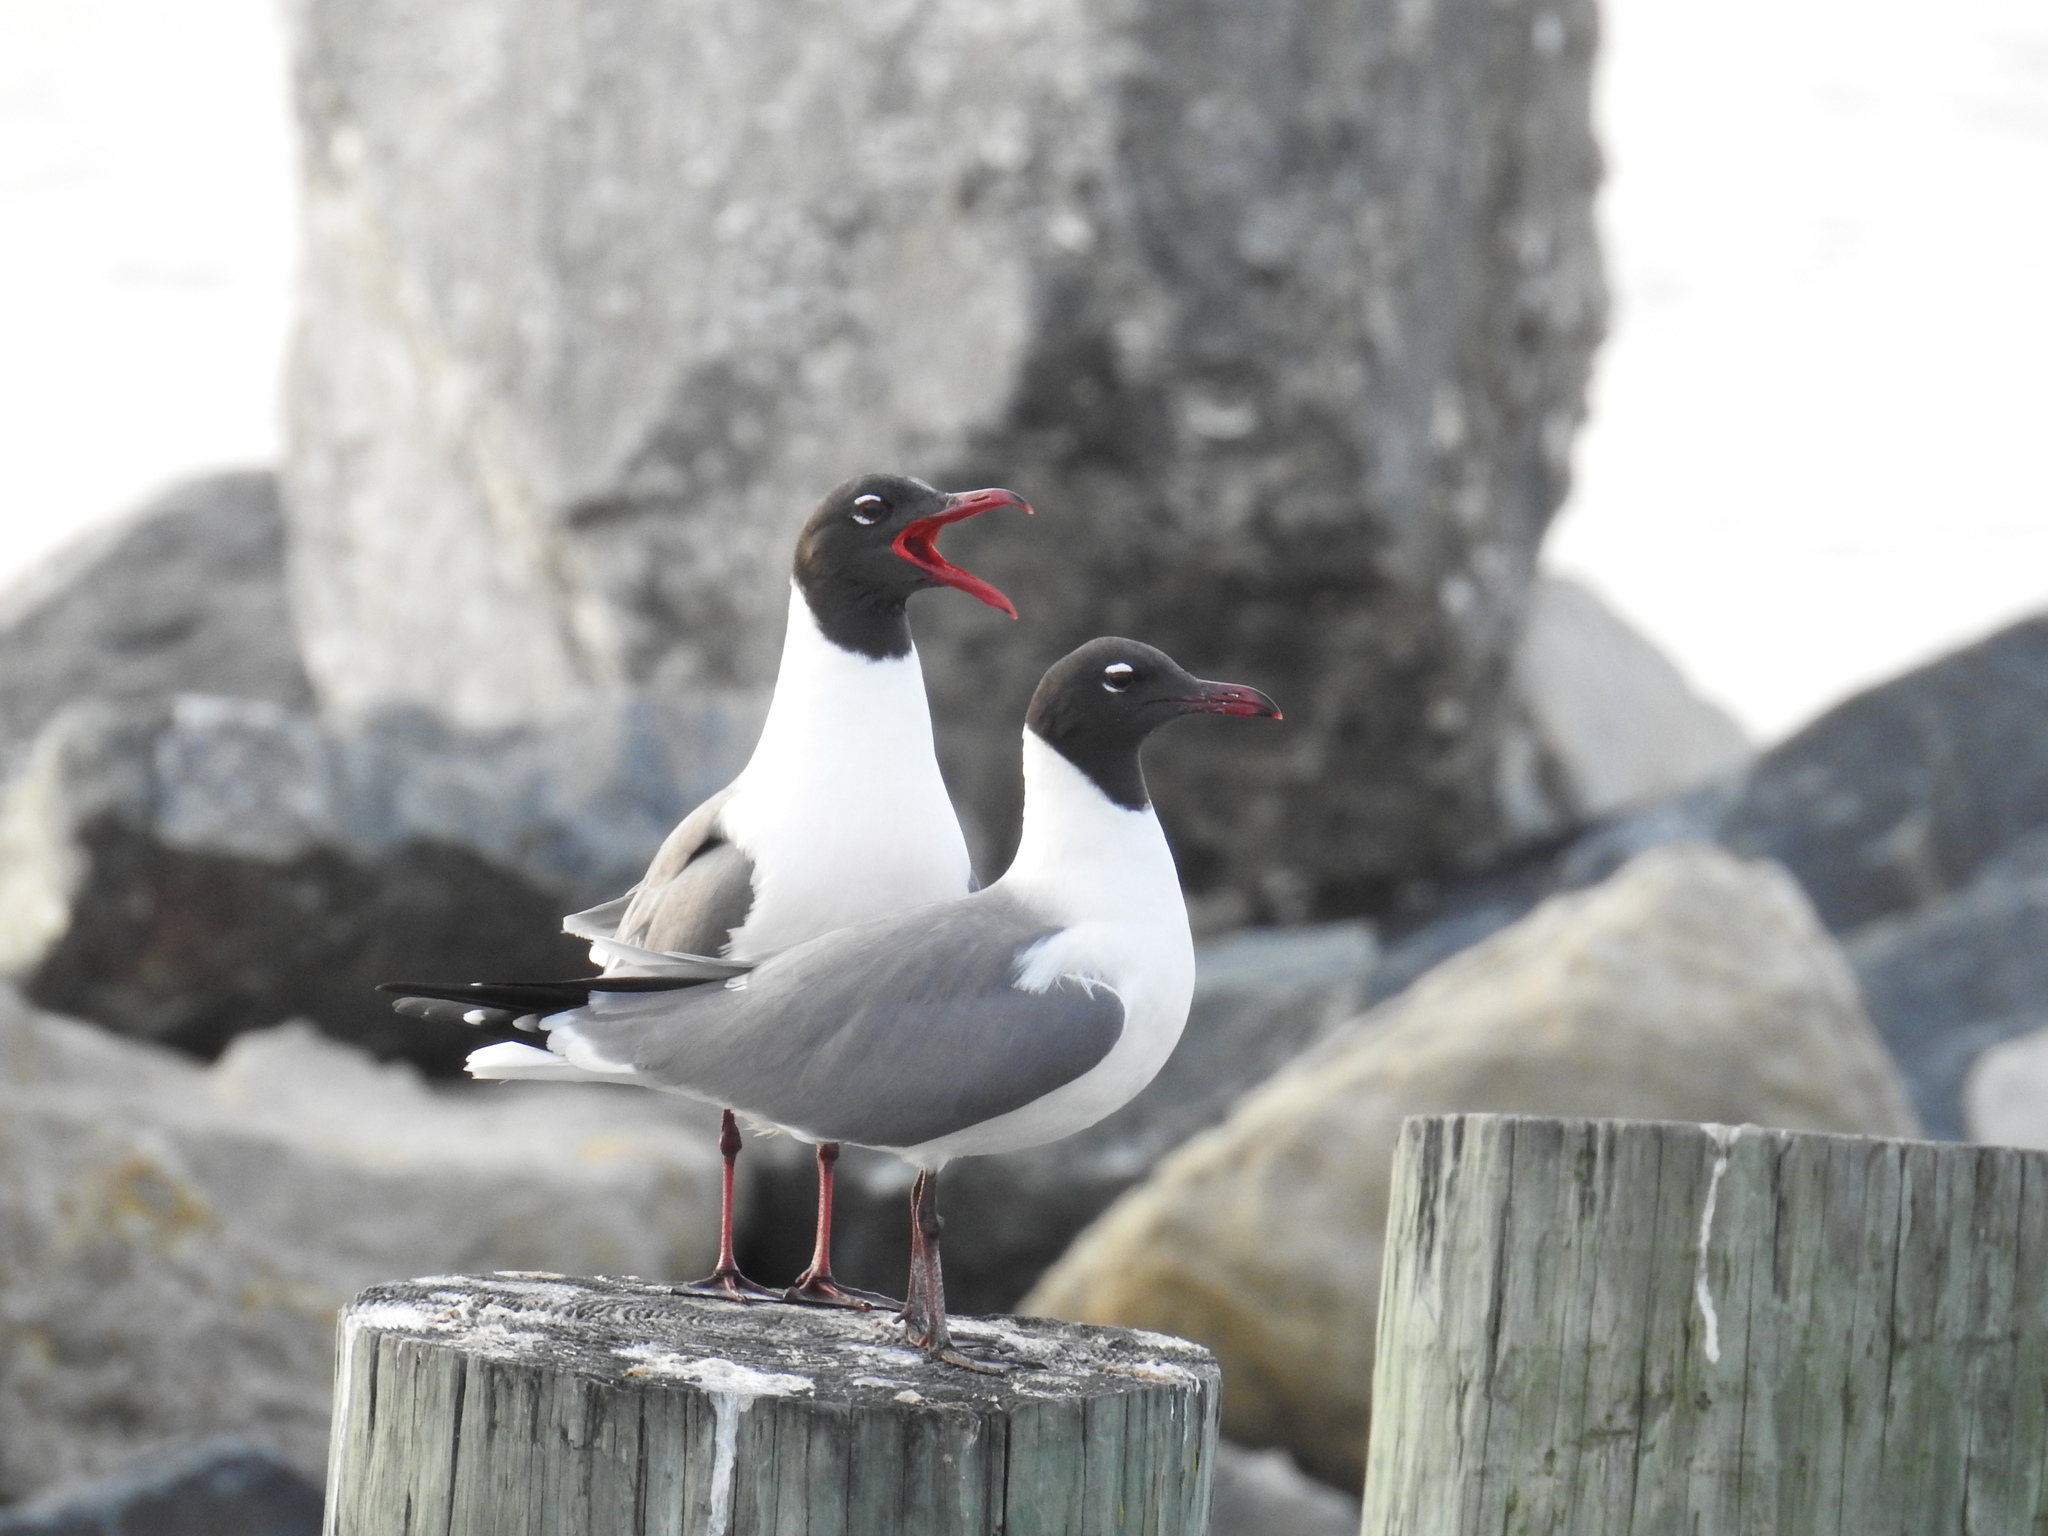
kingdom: Animalia
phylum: Chordata
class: Aves
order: Charadriiformes
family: Laridae
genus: Leucophaeus
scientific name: Leucophaeus atricilla
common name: Laughing gull
